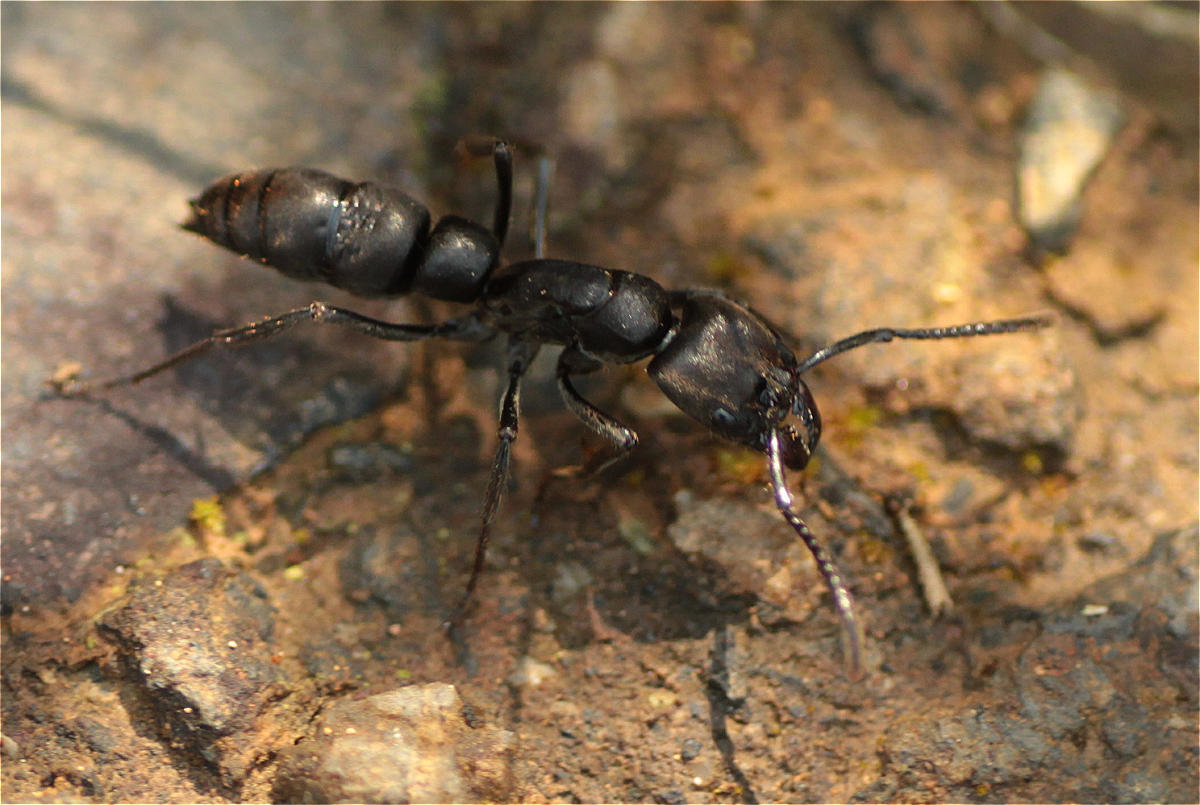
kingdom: Animalia
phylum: Arthropoda
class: Insecta
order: Hymenoptera
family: Formicidae
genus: Pachycondyla
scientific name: Pachycondyla crassinoda
